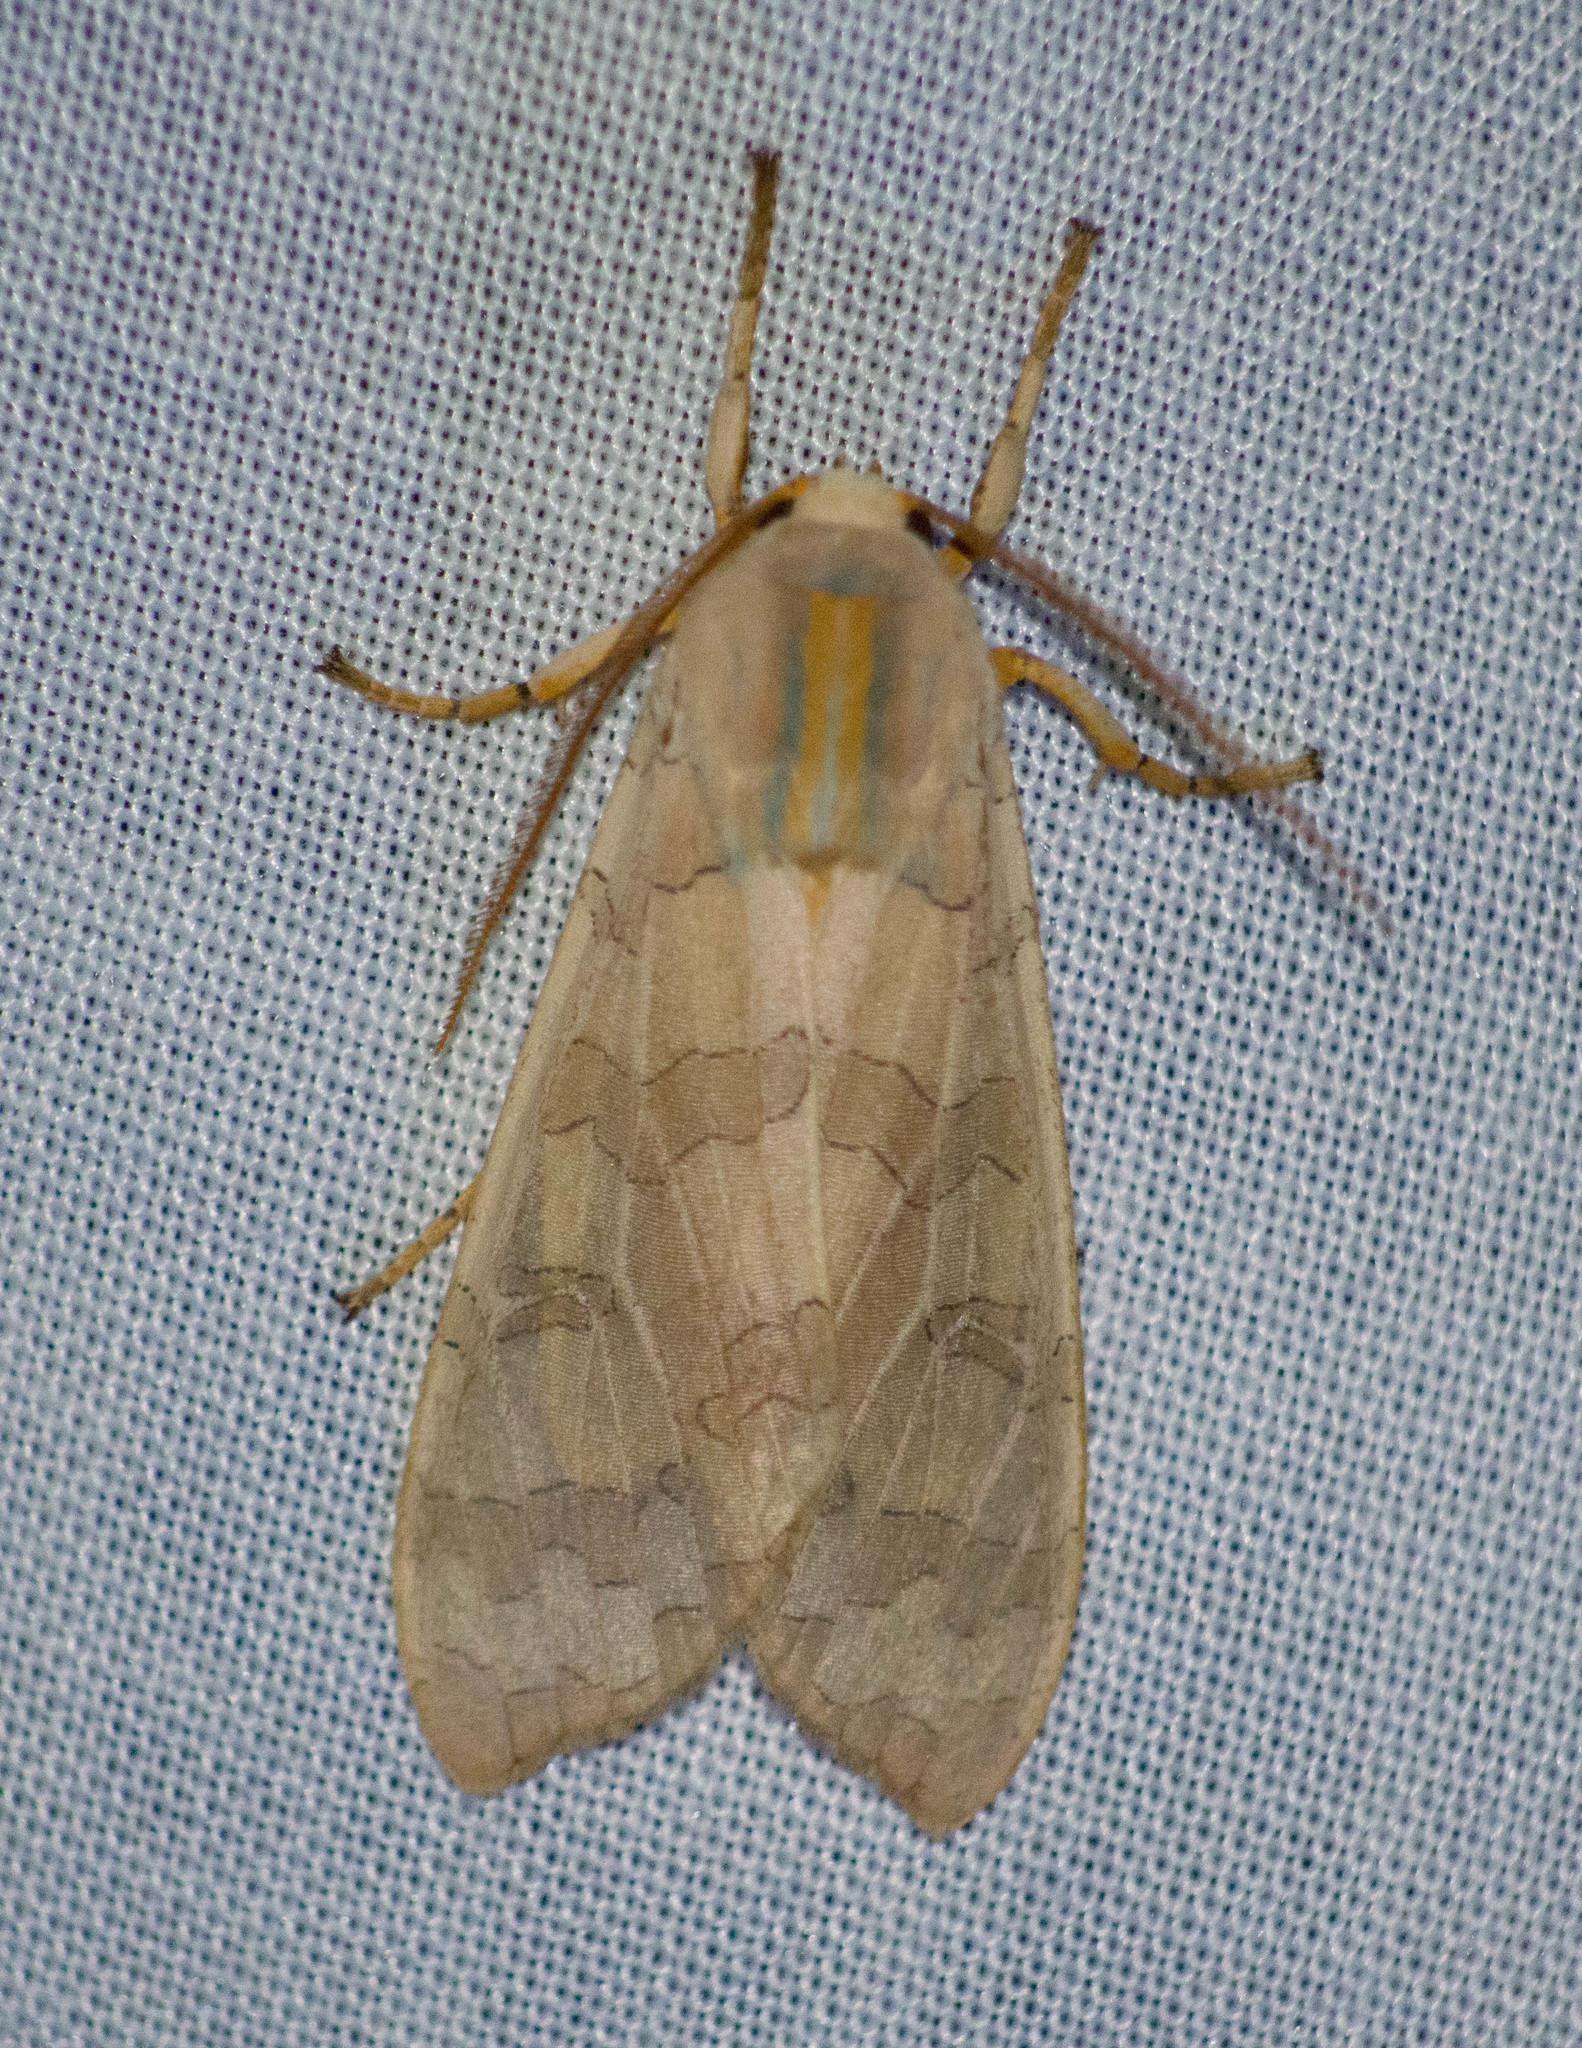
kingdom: Animalia
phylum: Arthropoda
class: Insecta
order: Lepidoptera
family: Erebidae
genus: Halysidota
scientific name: Halysidota
